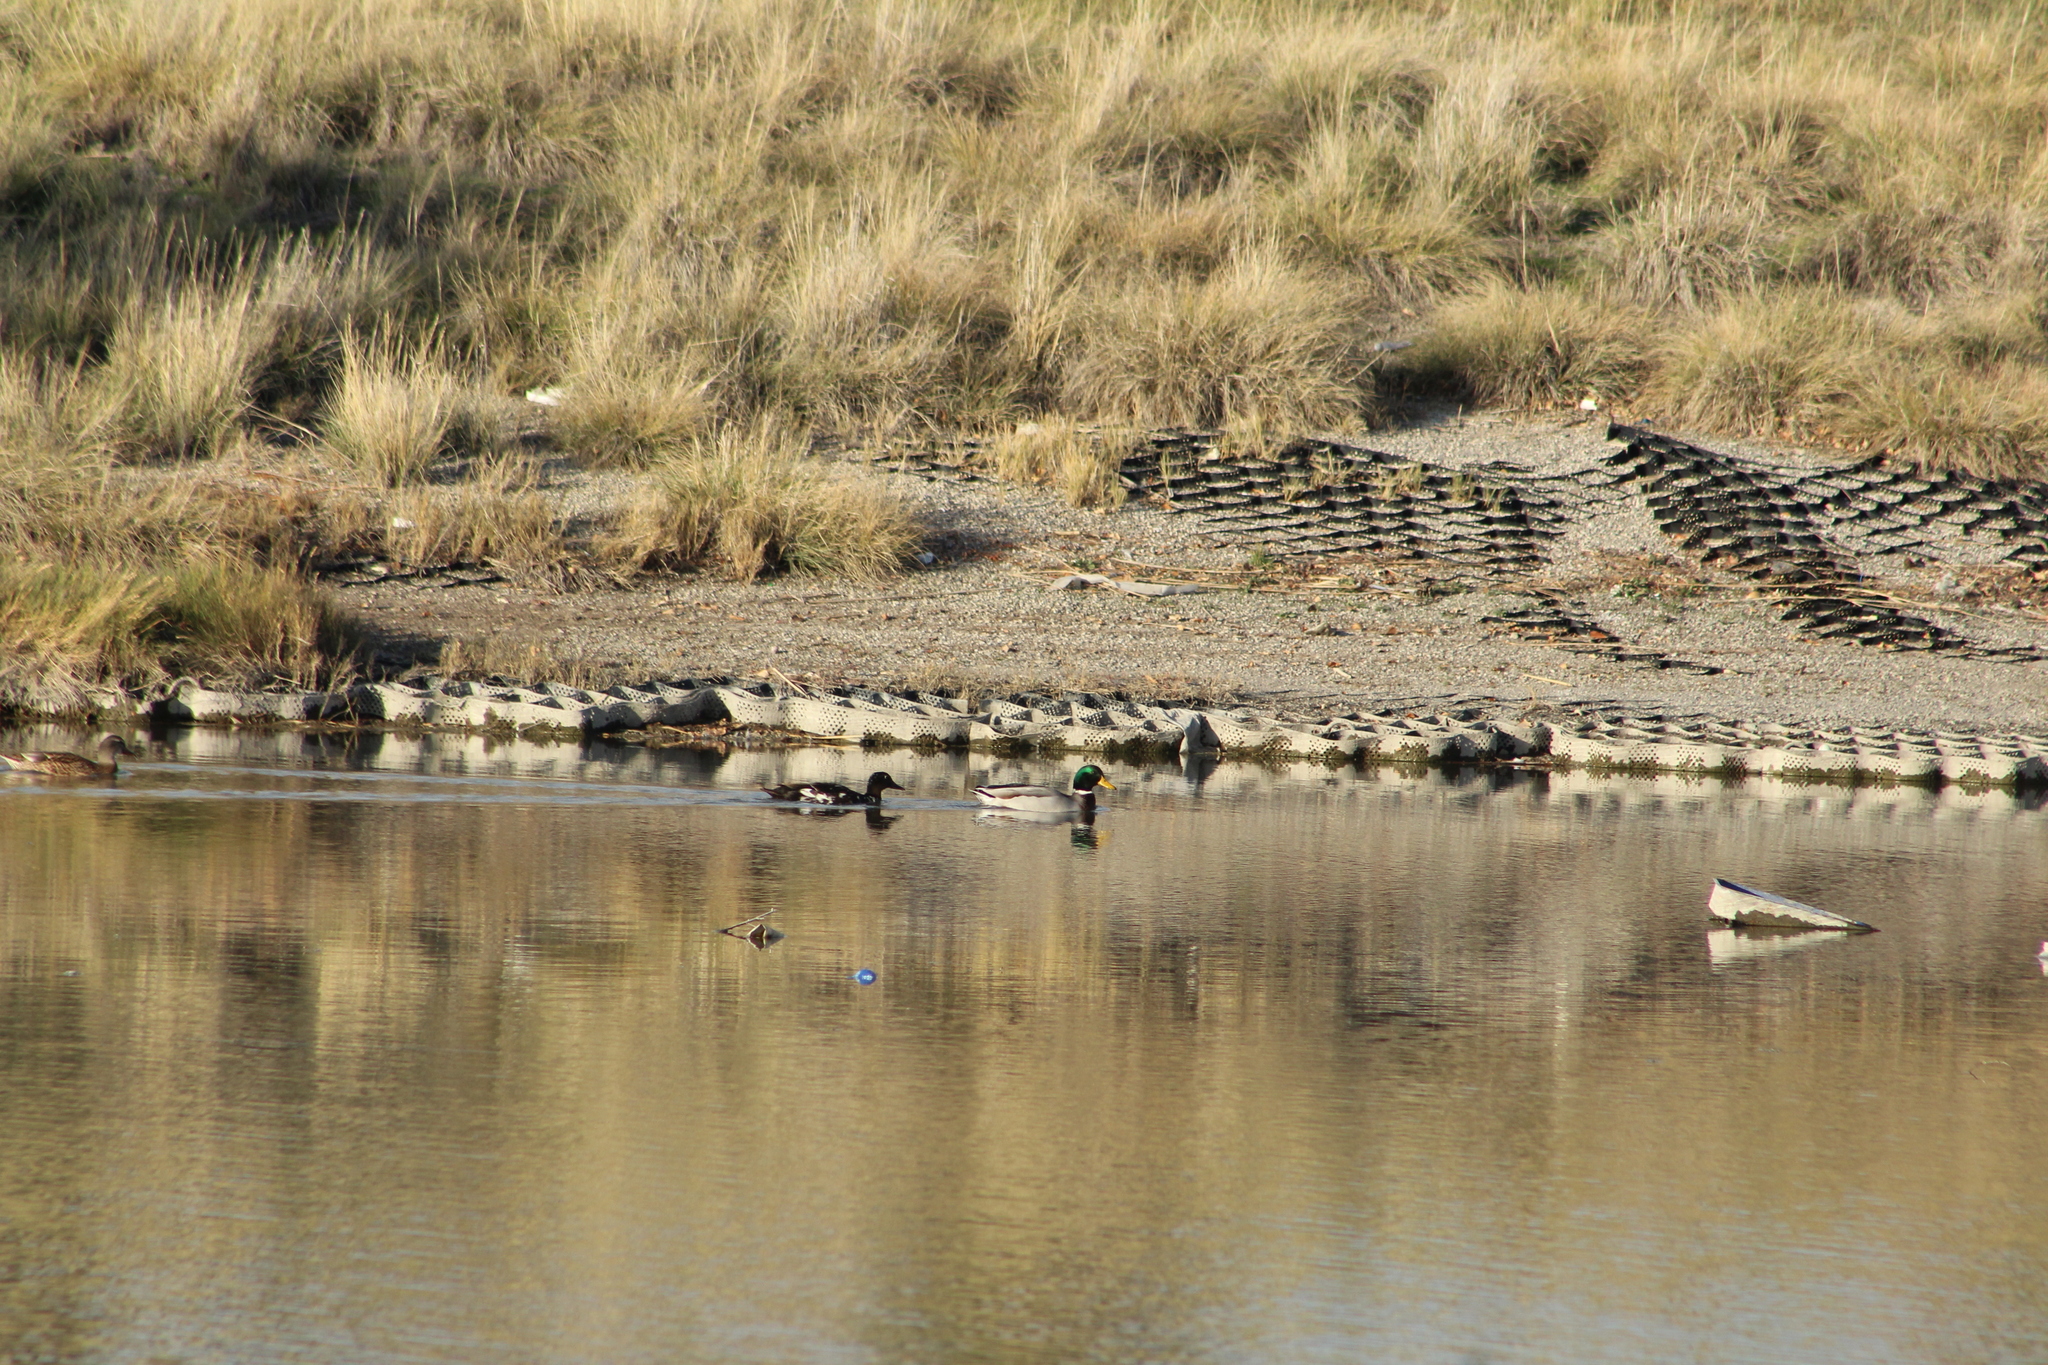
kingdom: Animalia
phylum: Chordata
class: Aves
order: Anseriformes
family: Anatidae
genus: Anas
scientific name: Anas platyrhynchos
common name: Mallard
